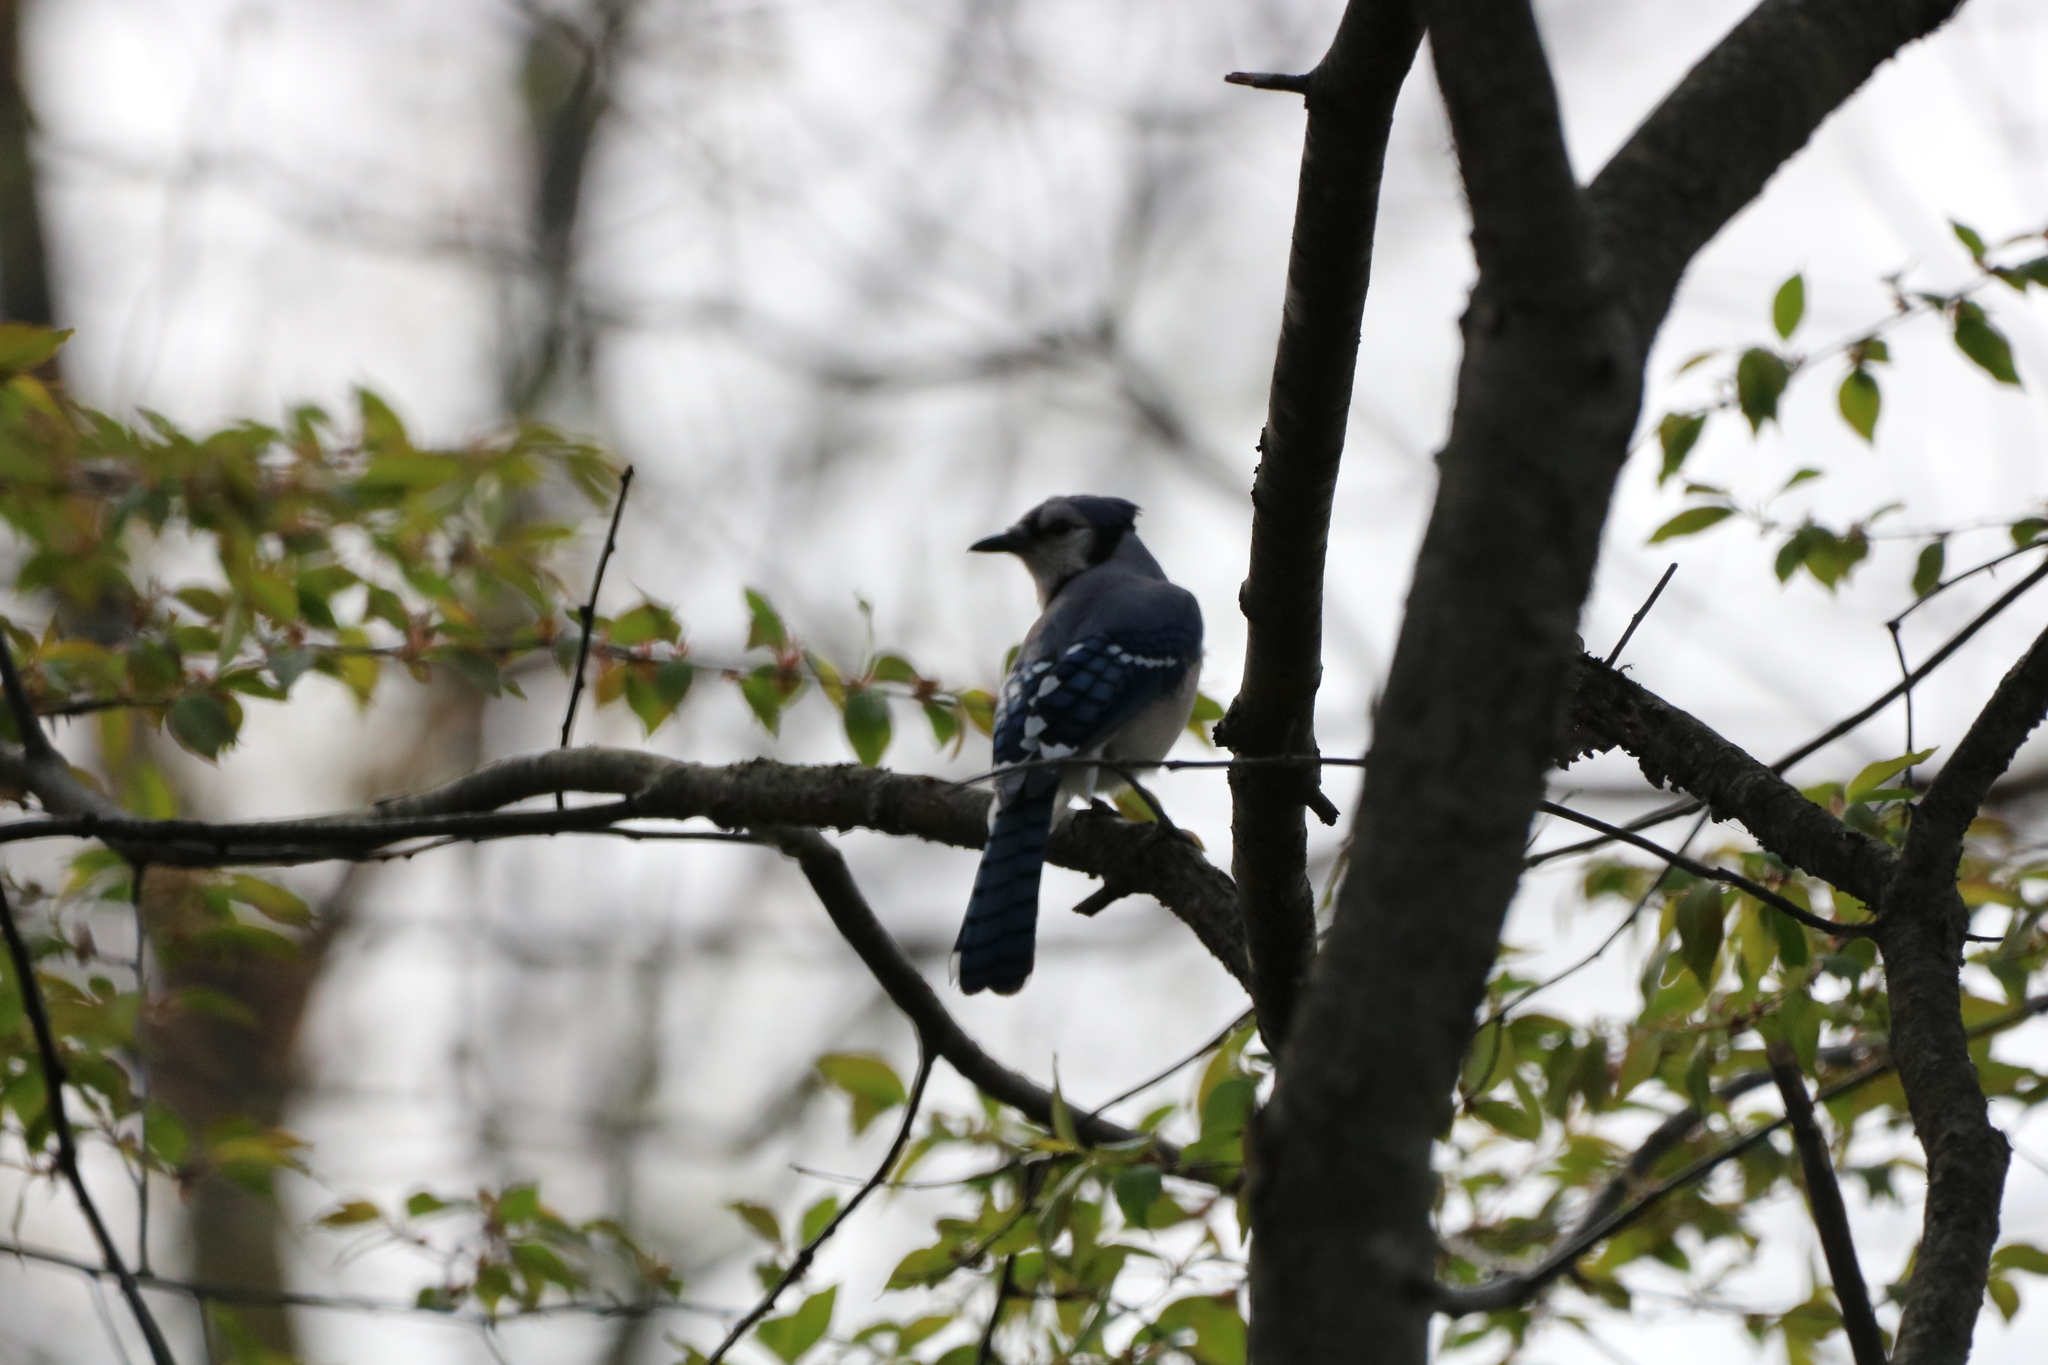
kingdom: Animalia
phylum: Chordata
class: Aves
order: Passeriformes
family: Corvidae
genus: Cyanocitta
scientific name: Cyanocitta cristata
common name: Blue jay
